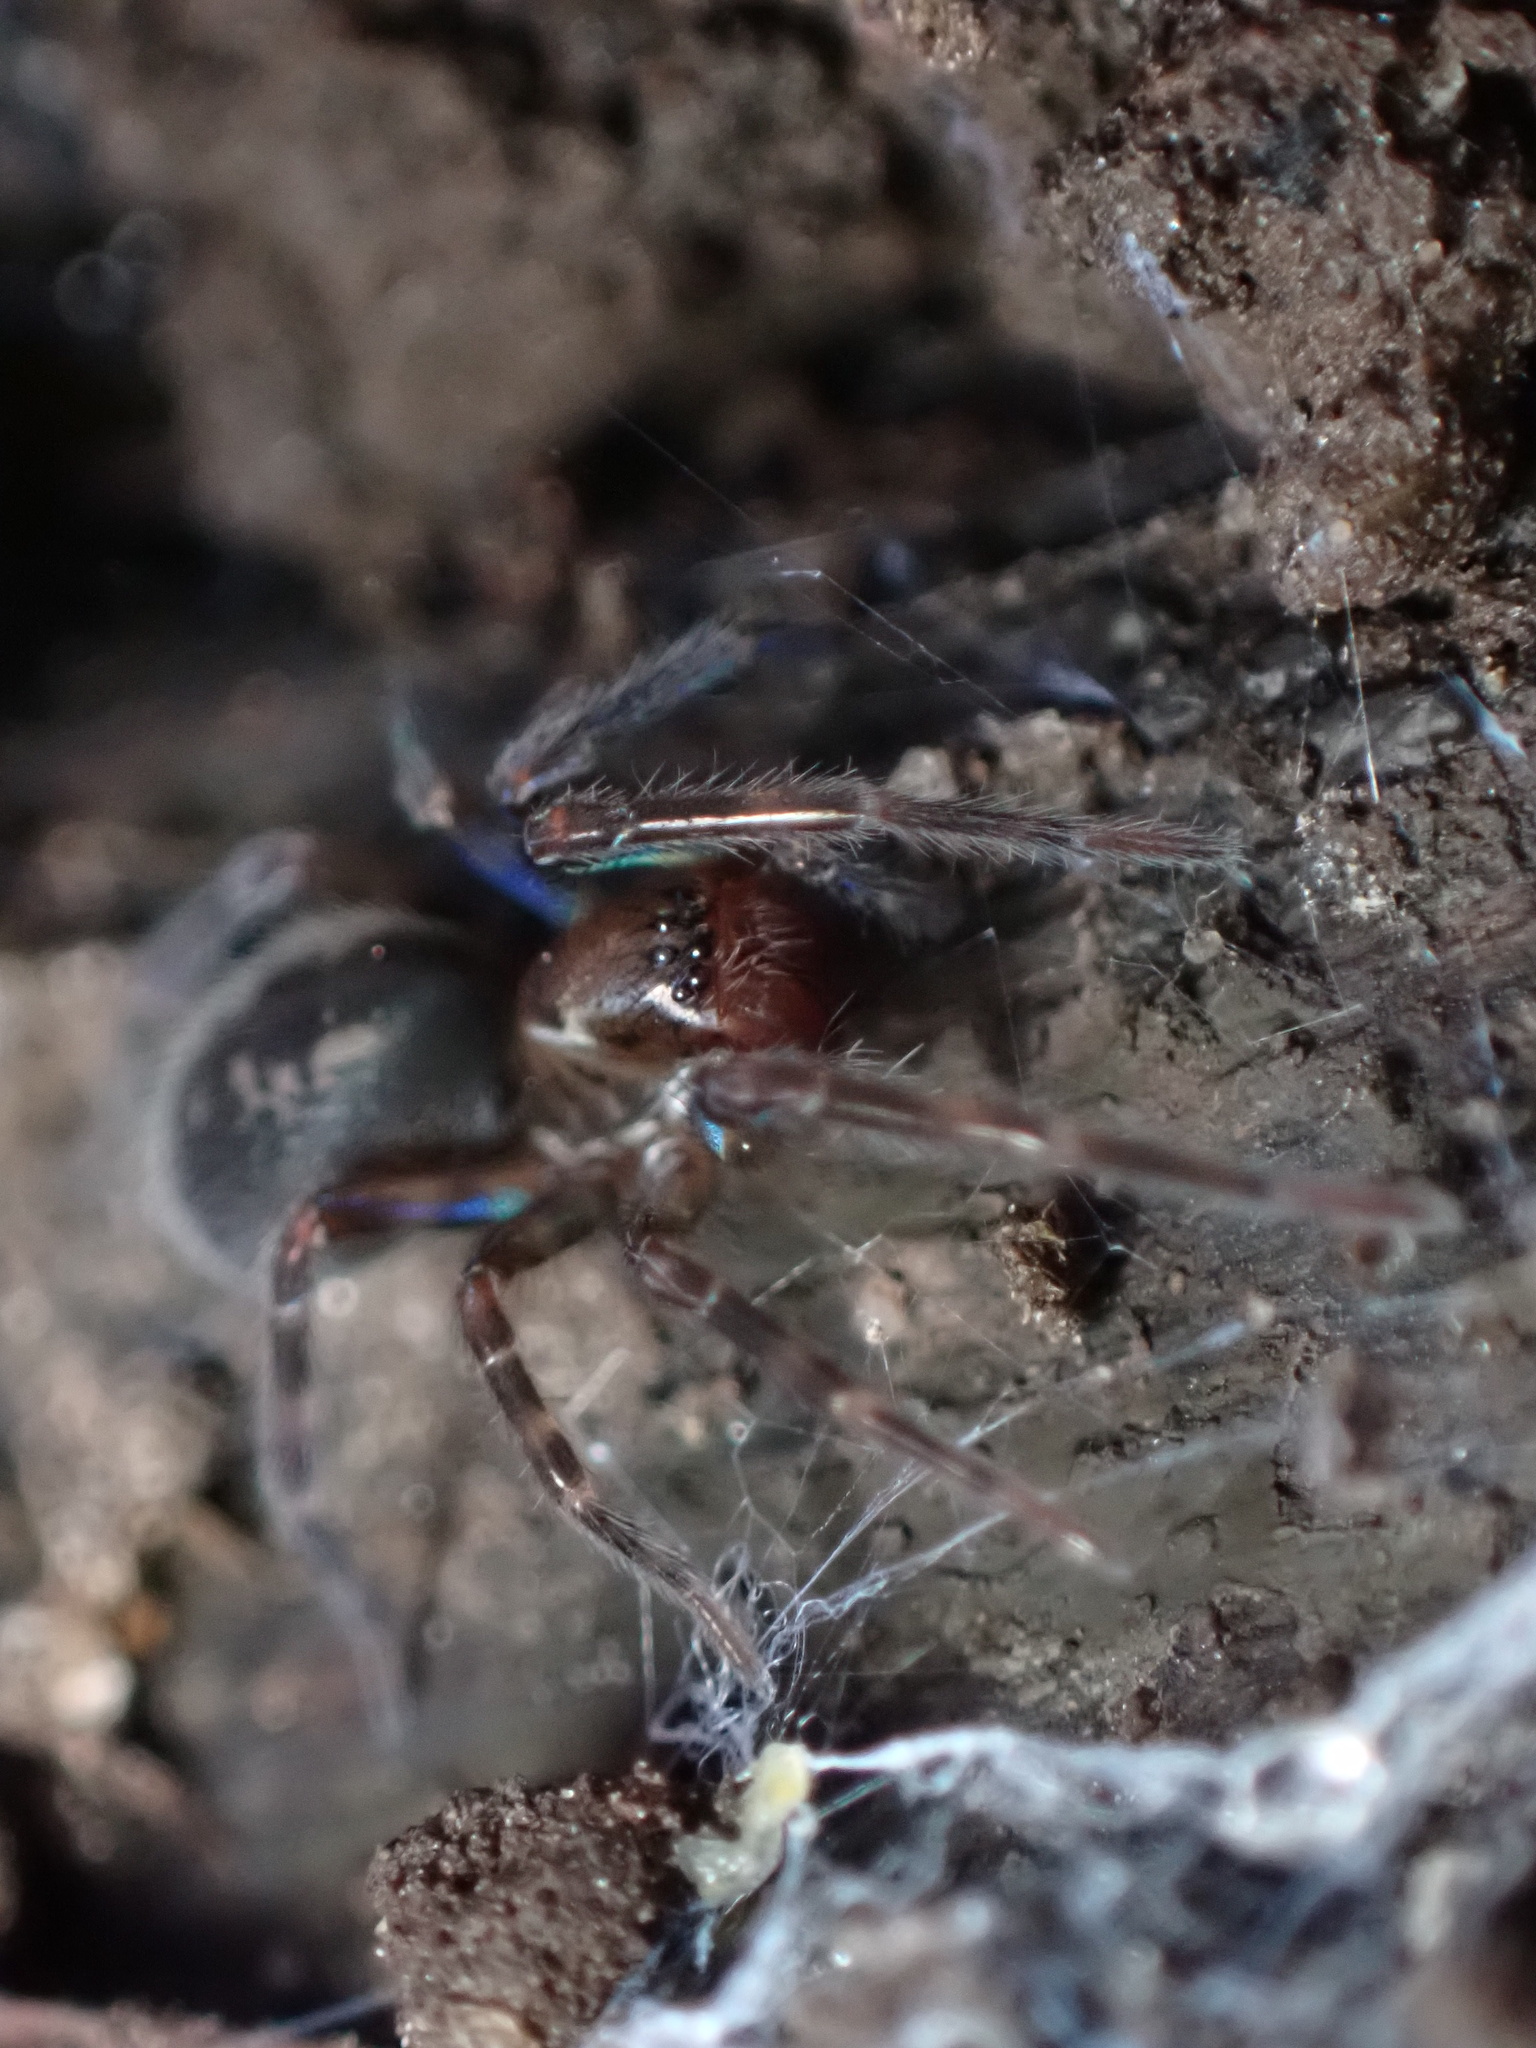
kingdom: Animalia
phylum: Arthropoda
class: Arachnida
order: Araneae
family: Amaurobiidae
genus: Amaurobius
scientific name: Amaurobius ferox
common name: Black laceweaver
